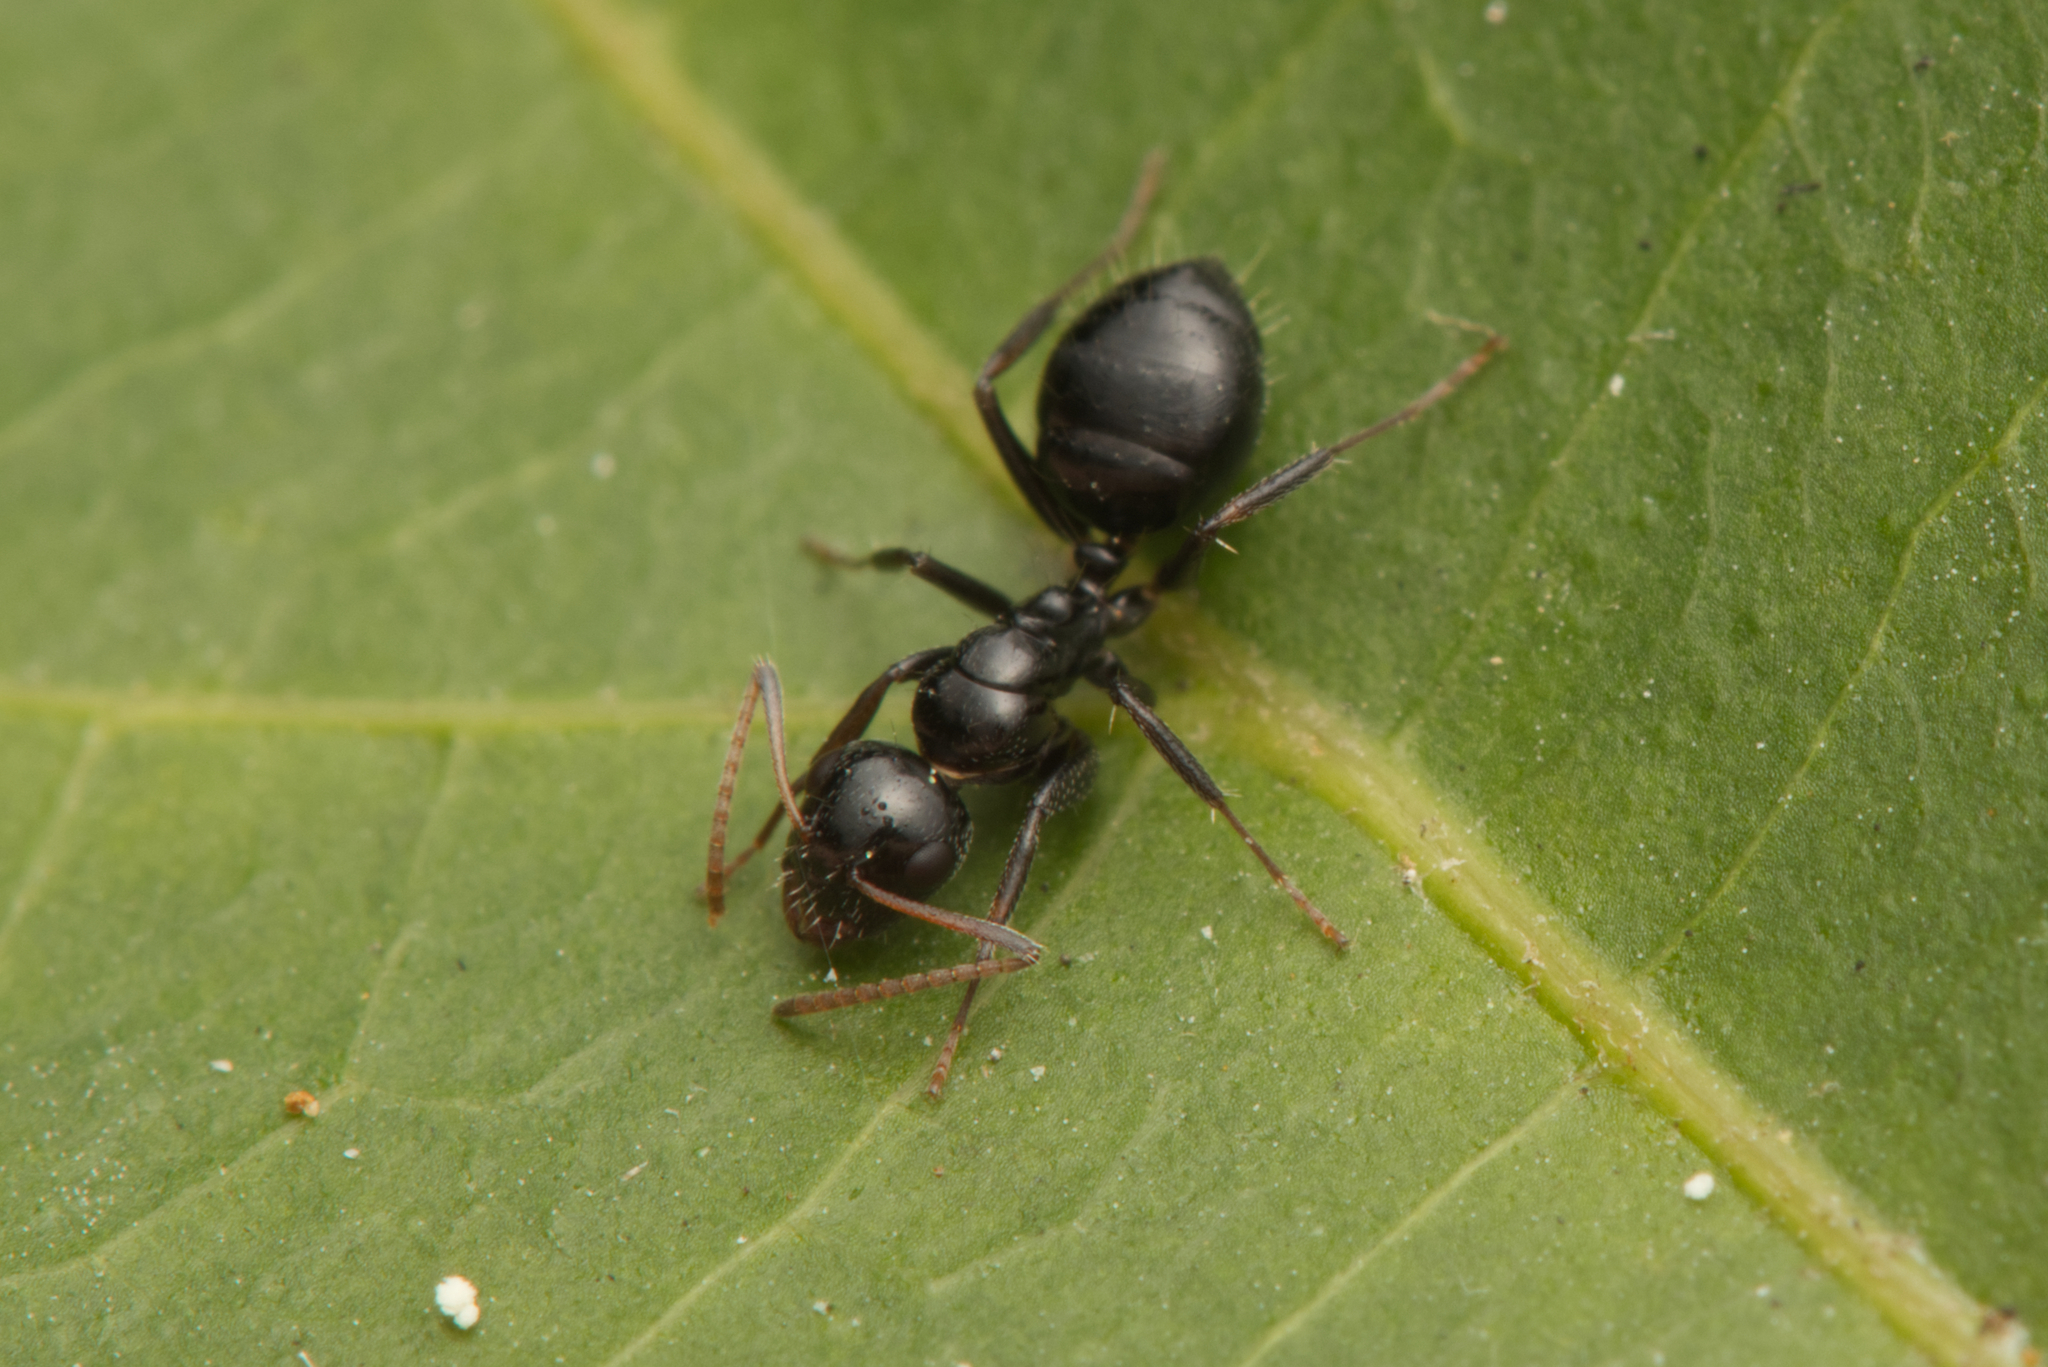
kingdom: Animalia
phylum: Arthropoda
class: Insecta
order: Hymenoptera
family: Formicidae
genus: Camponotus
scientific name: Camponotus mackayensis
